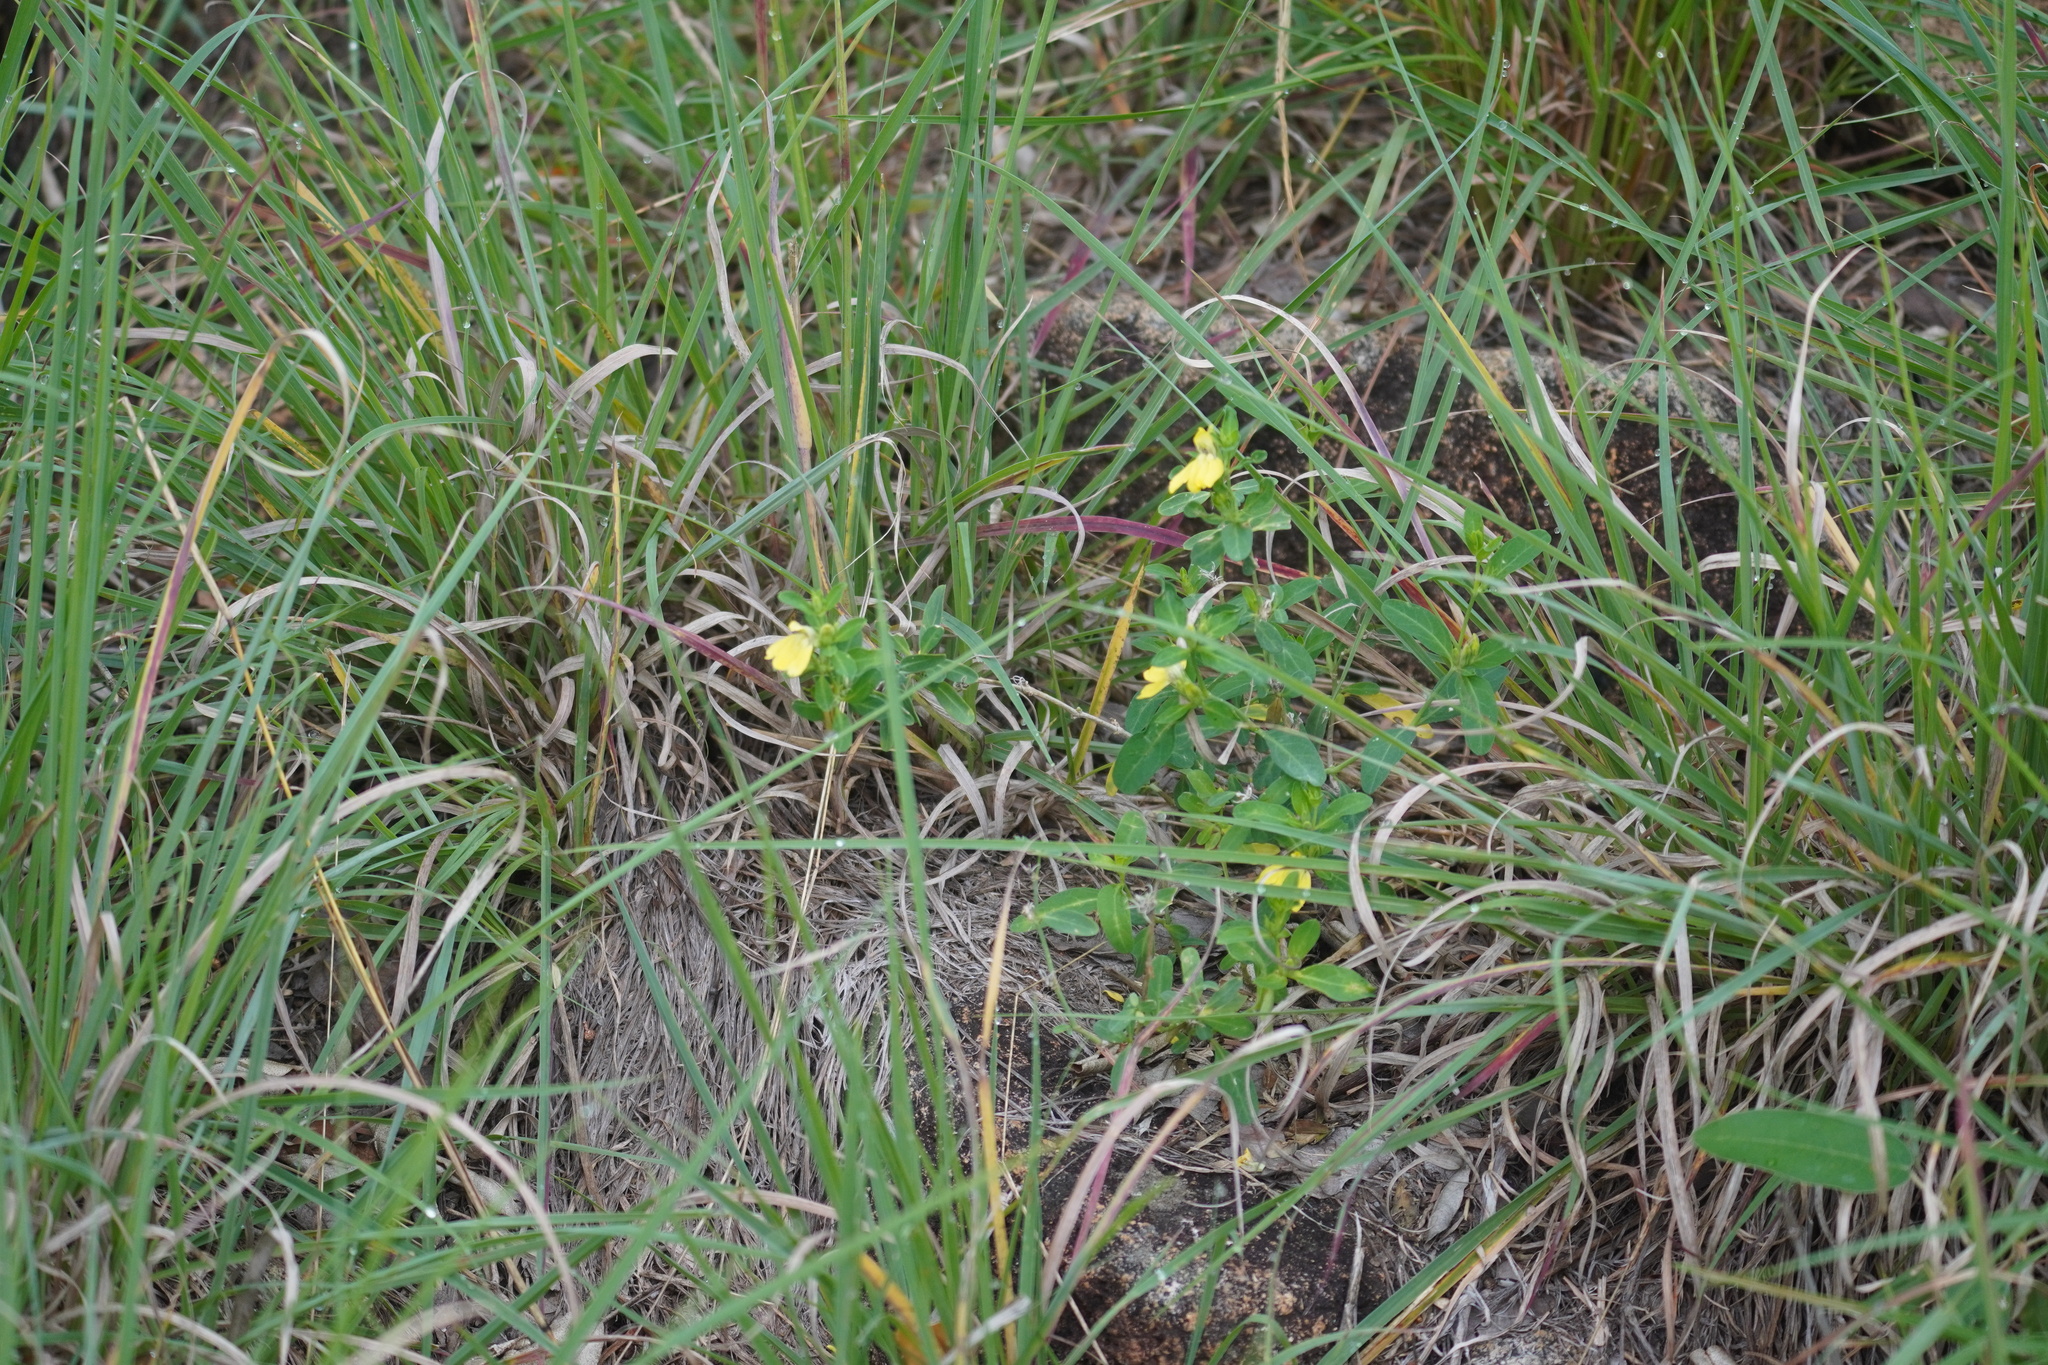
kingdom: Plantae
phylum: Tracheophyta
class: Magnoliopsida
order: Lamiales
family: Acanthaceae
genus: Justicia
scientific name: Justicia odora
